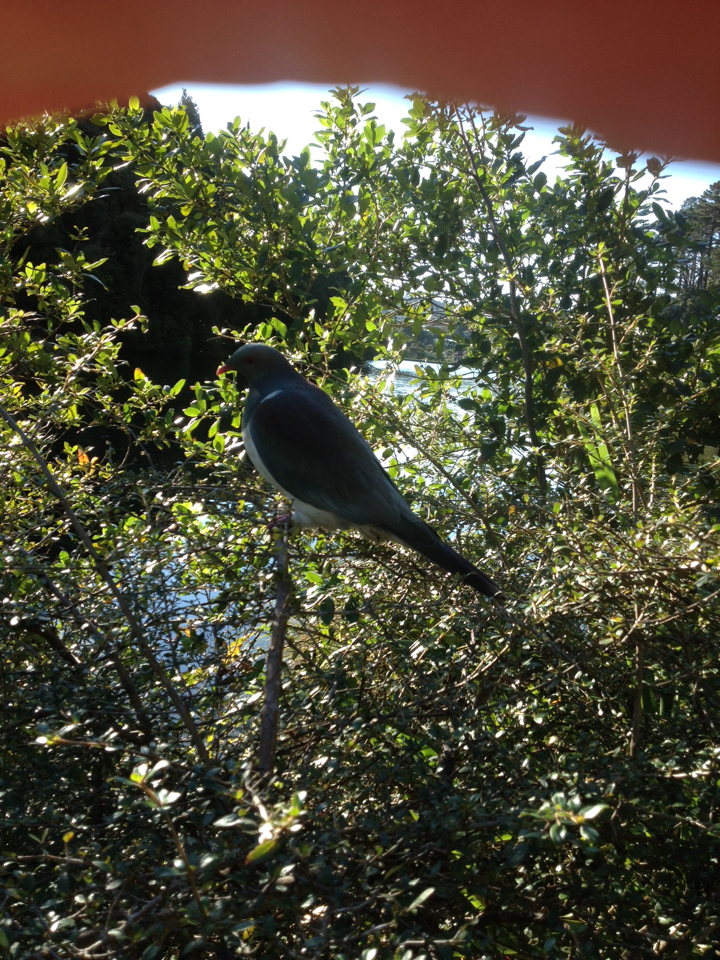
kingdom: Animalia
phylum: Chordata
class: Aves
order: Columbiformes
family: Columbidae
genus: Hemiphaga
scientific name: Hemiphaga novaeseelandiae
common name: New zealand pigeon
